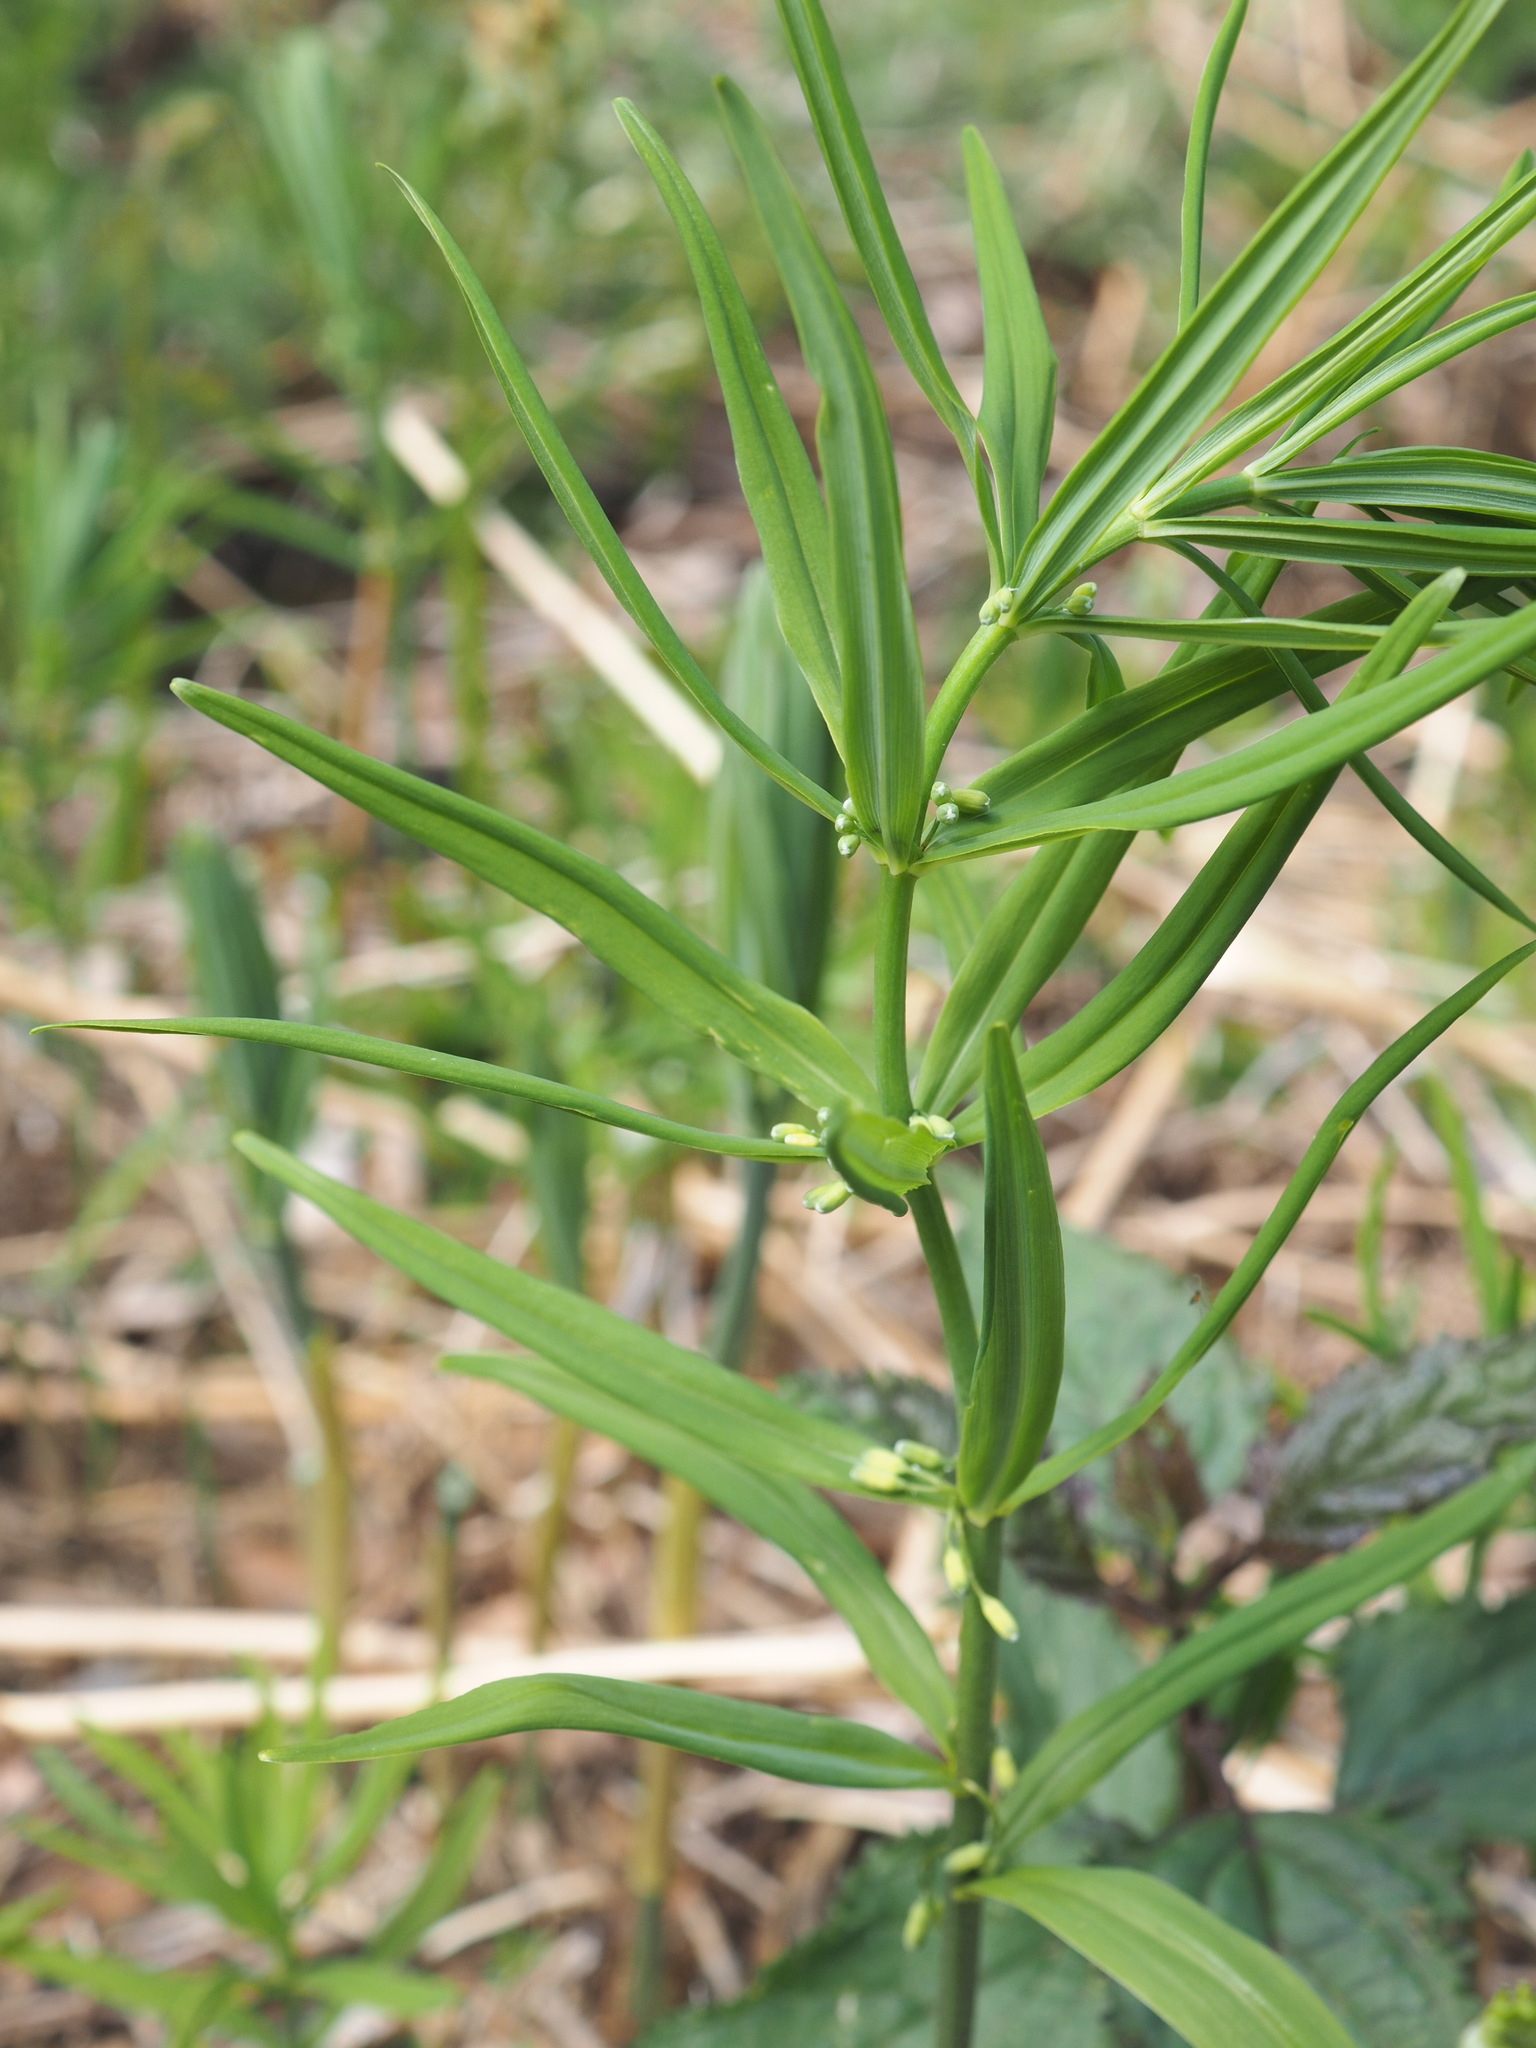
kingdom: Plantae
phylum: Tracheophyta
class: Liliopsida
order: Asparagales
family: Asparagaceae
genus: Polygonatum
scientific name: Polygonatum verticillatum
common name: Whorled solomon's-seal
